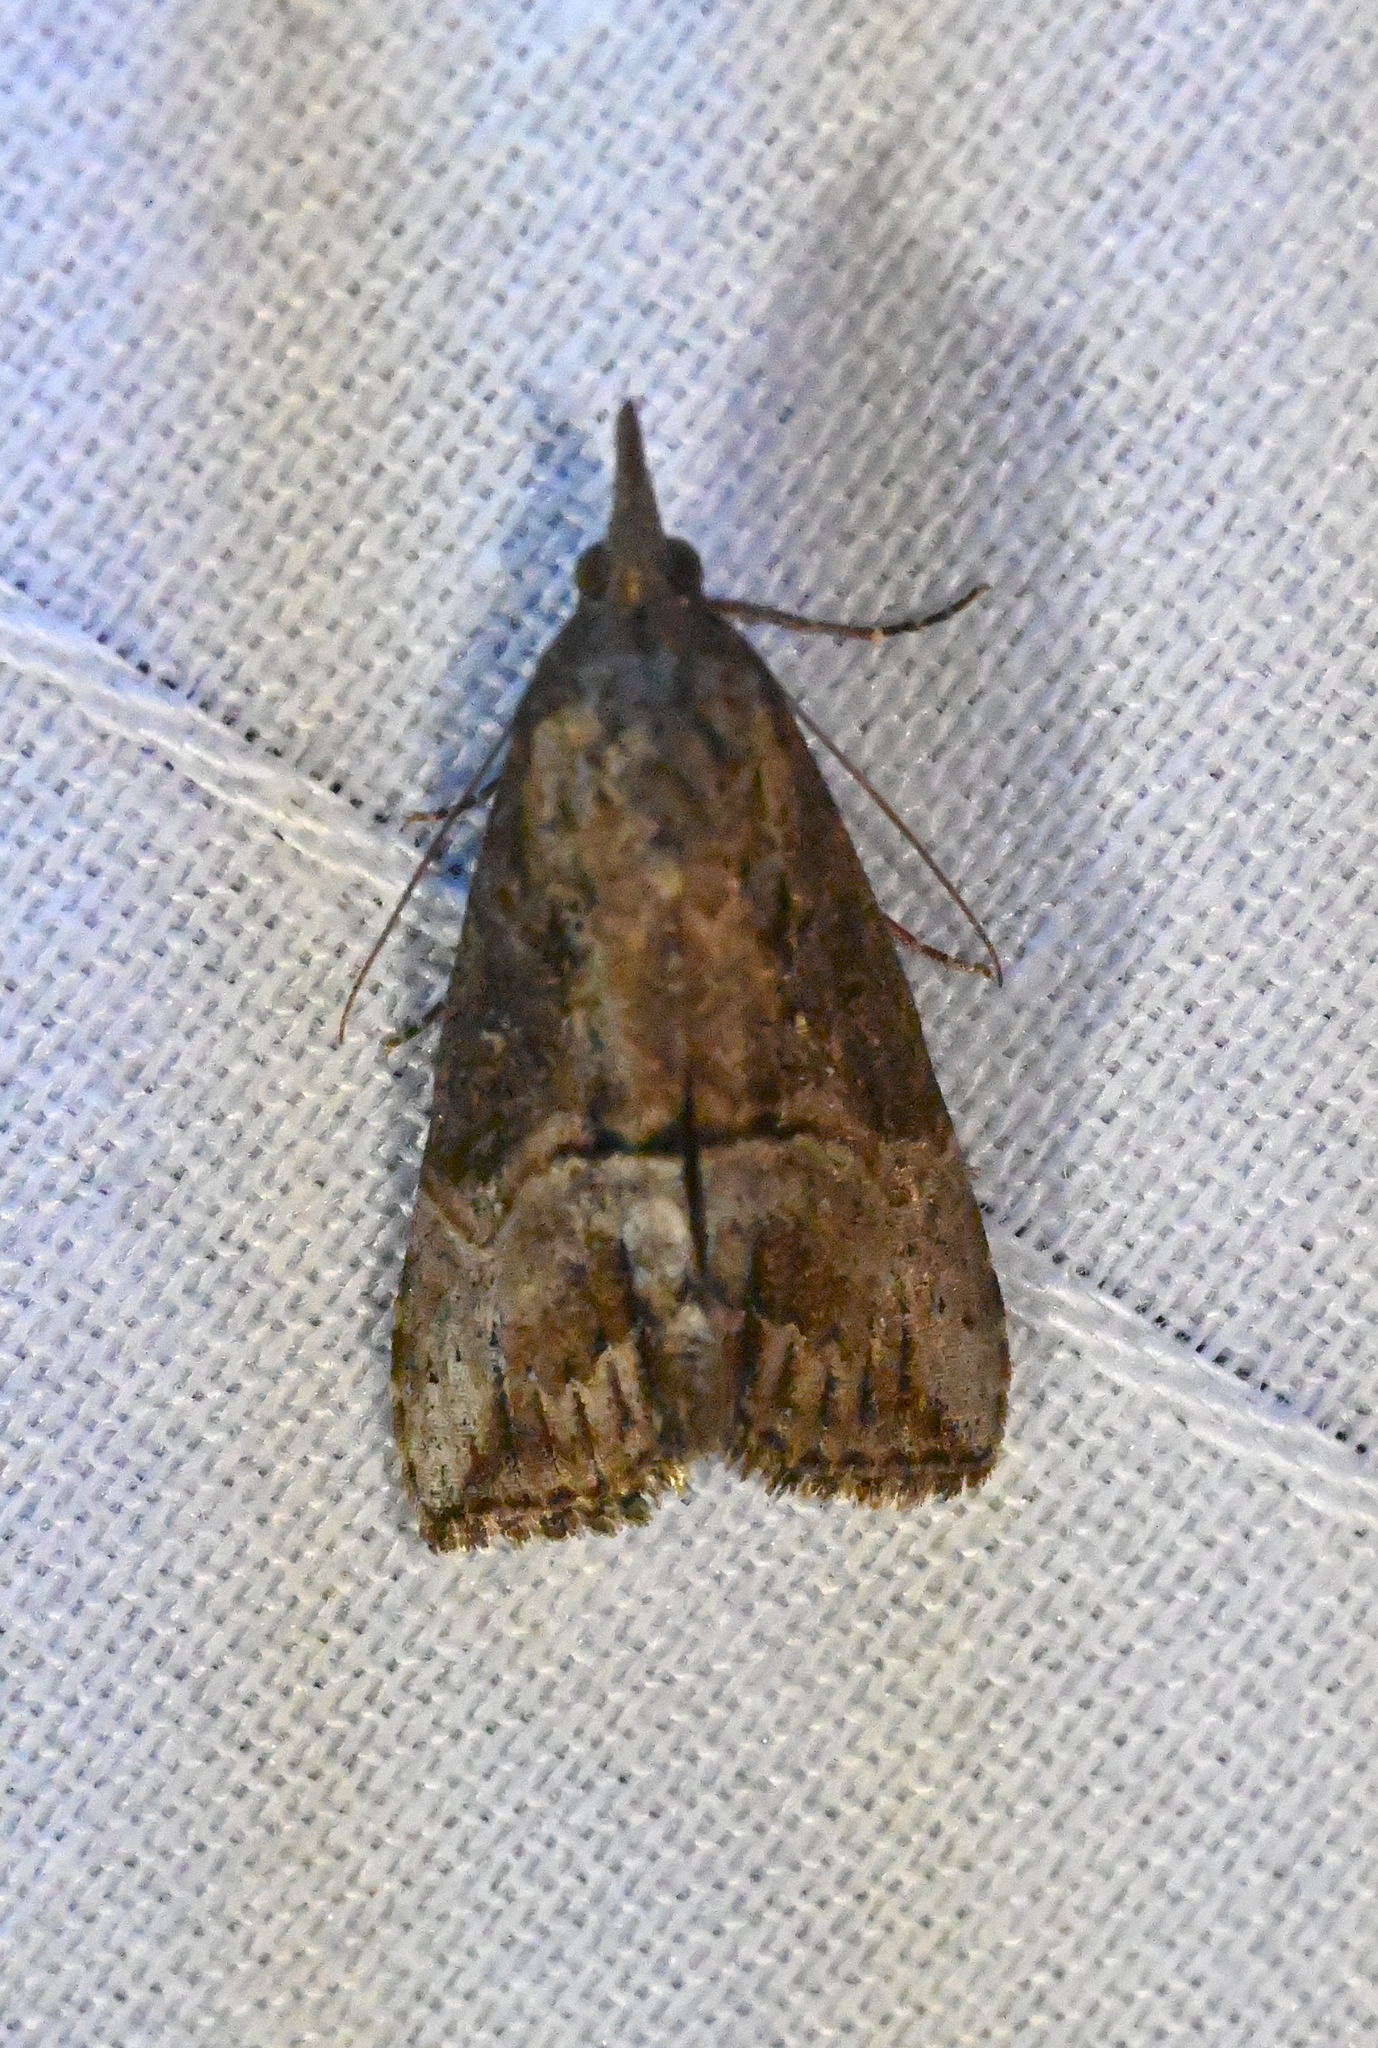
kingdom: Animalia
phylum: Arthropoda
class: Insecta
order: Lepidoptera
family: Erebidae
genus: Hypena
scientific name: Hypena scabra
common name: Green cloverworm
